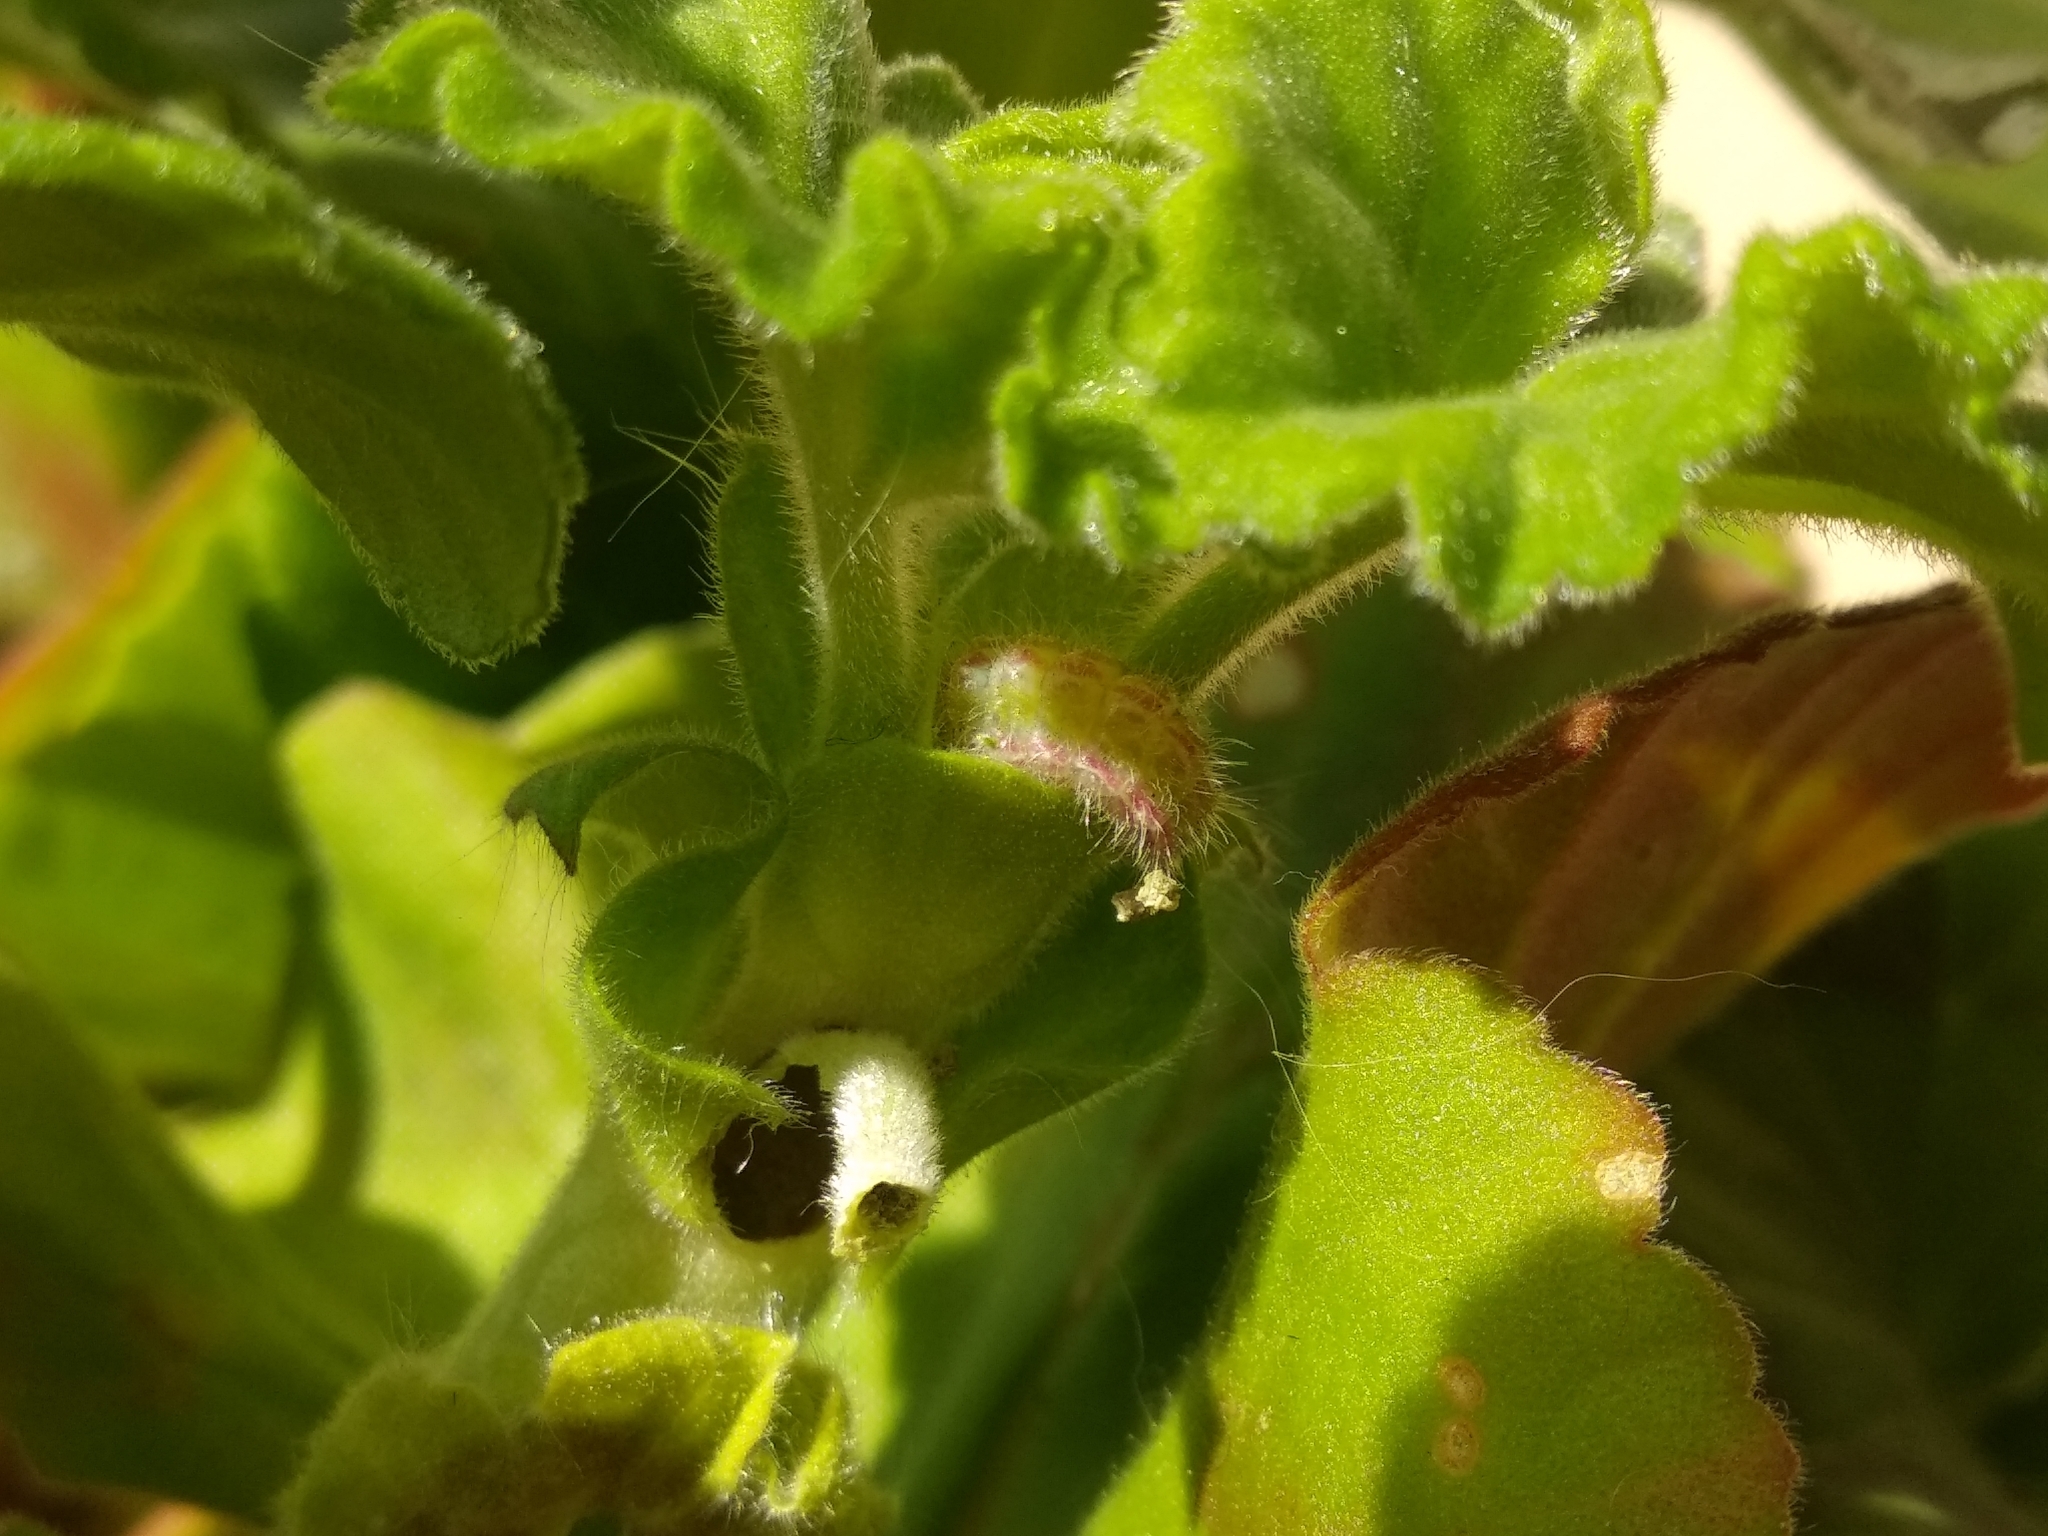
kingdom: Animalia
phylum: Arthropoda
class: Insecta
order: Lepidoptera
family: Lycaenidae
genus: Cacyreus
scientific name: Cacyreus marshalli
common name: Geranium bronze
